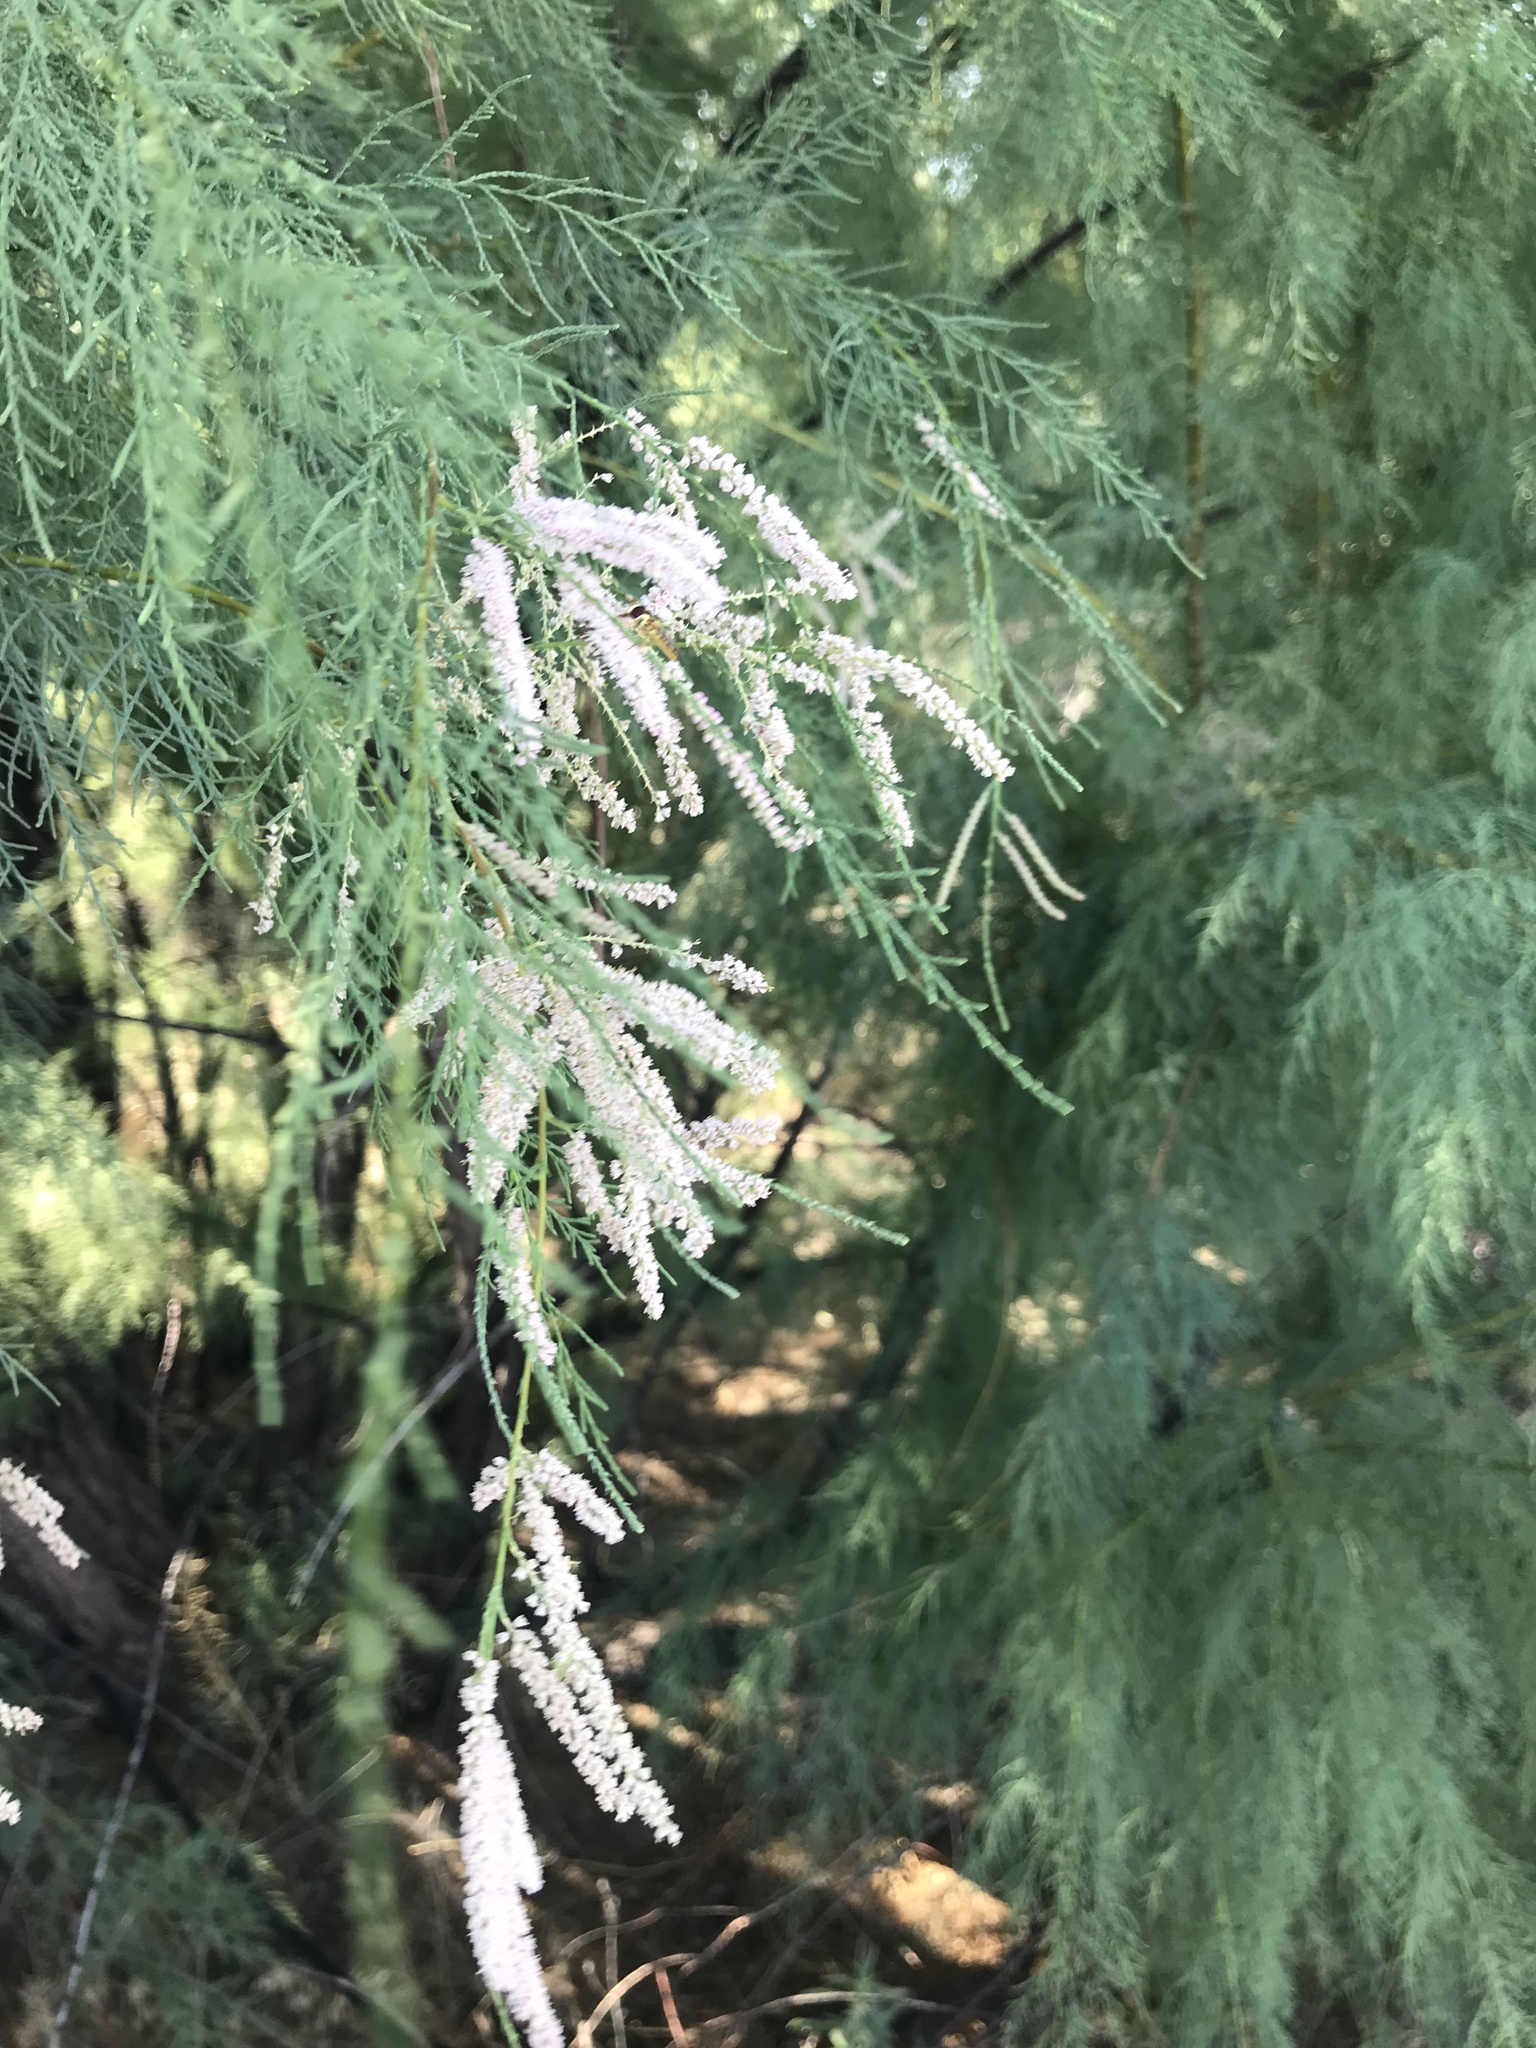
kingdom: Plantae
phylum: Tracheophyta
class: Magnoliopsida
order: Caryophyllales
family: Tamaricaceae
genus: Tamarix
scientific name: Tamarix ramosissima
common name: Pink tamarisk
